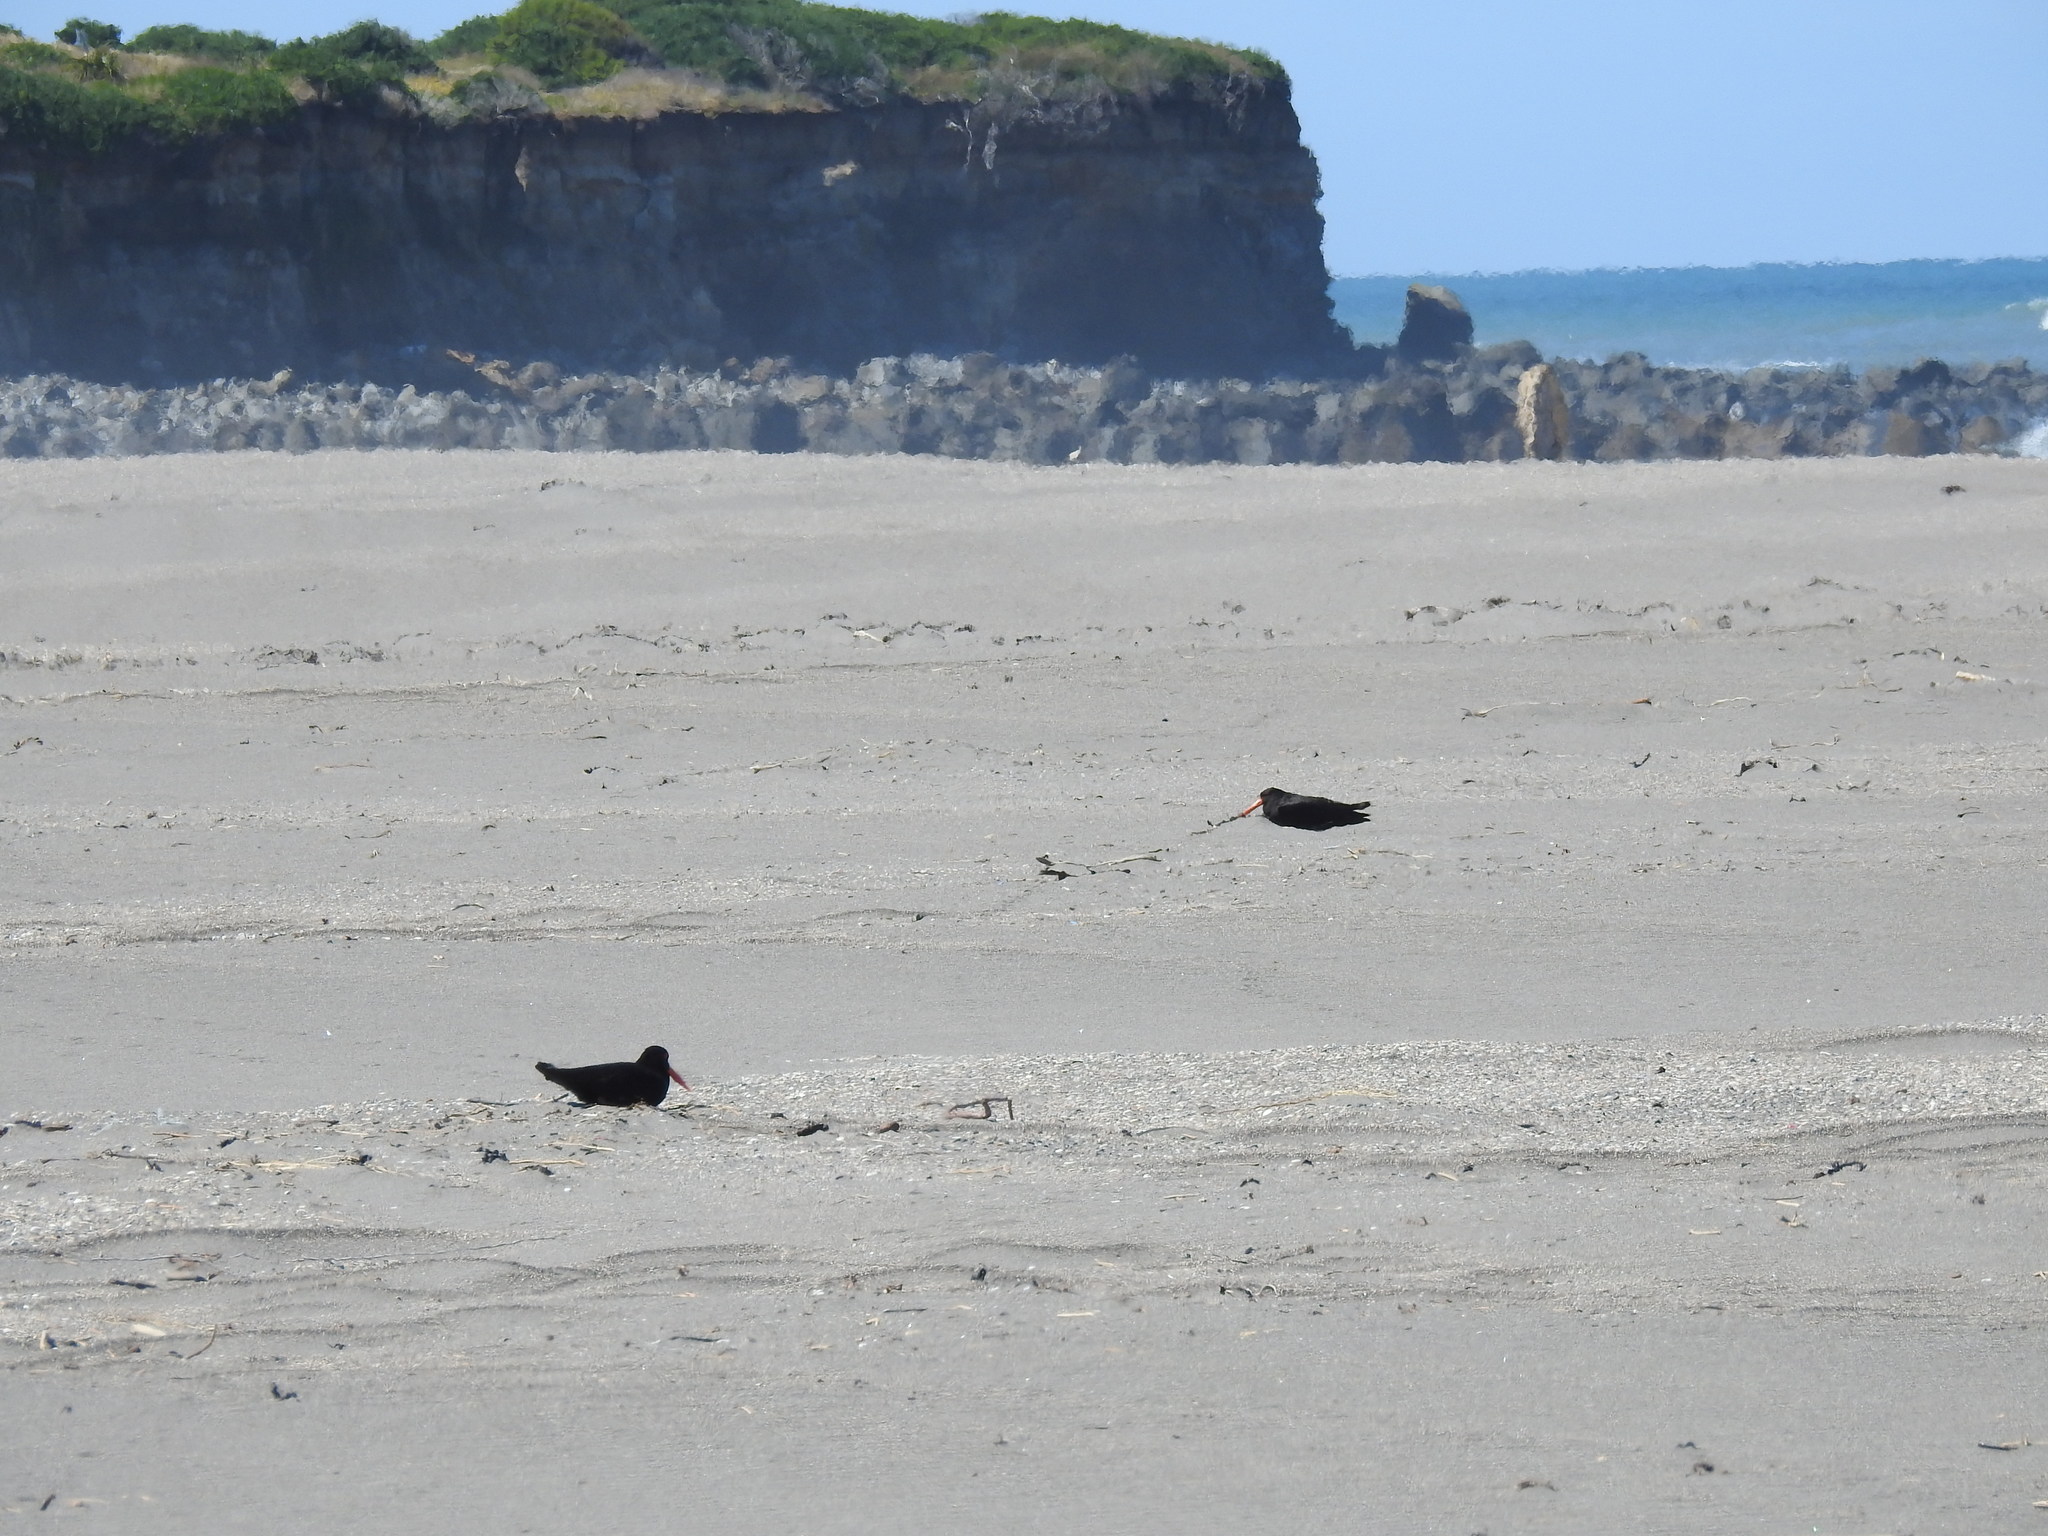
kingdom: Animalia
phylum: Chordata
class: Aves
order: Charadriiformes
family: Haematopodidae
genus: Haematopus
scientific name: Haematopus unicolor
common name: Variable oystercatcher
